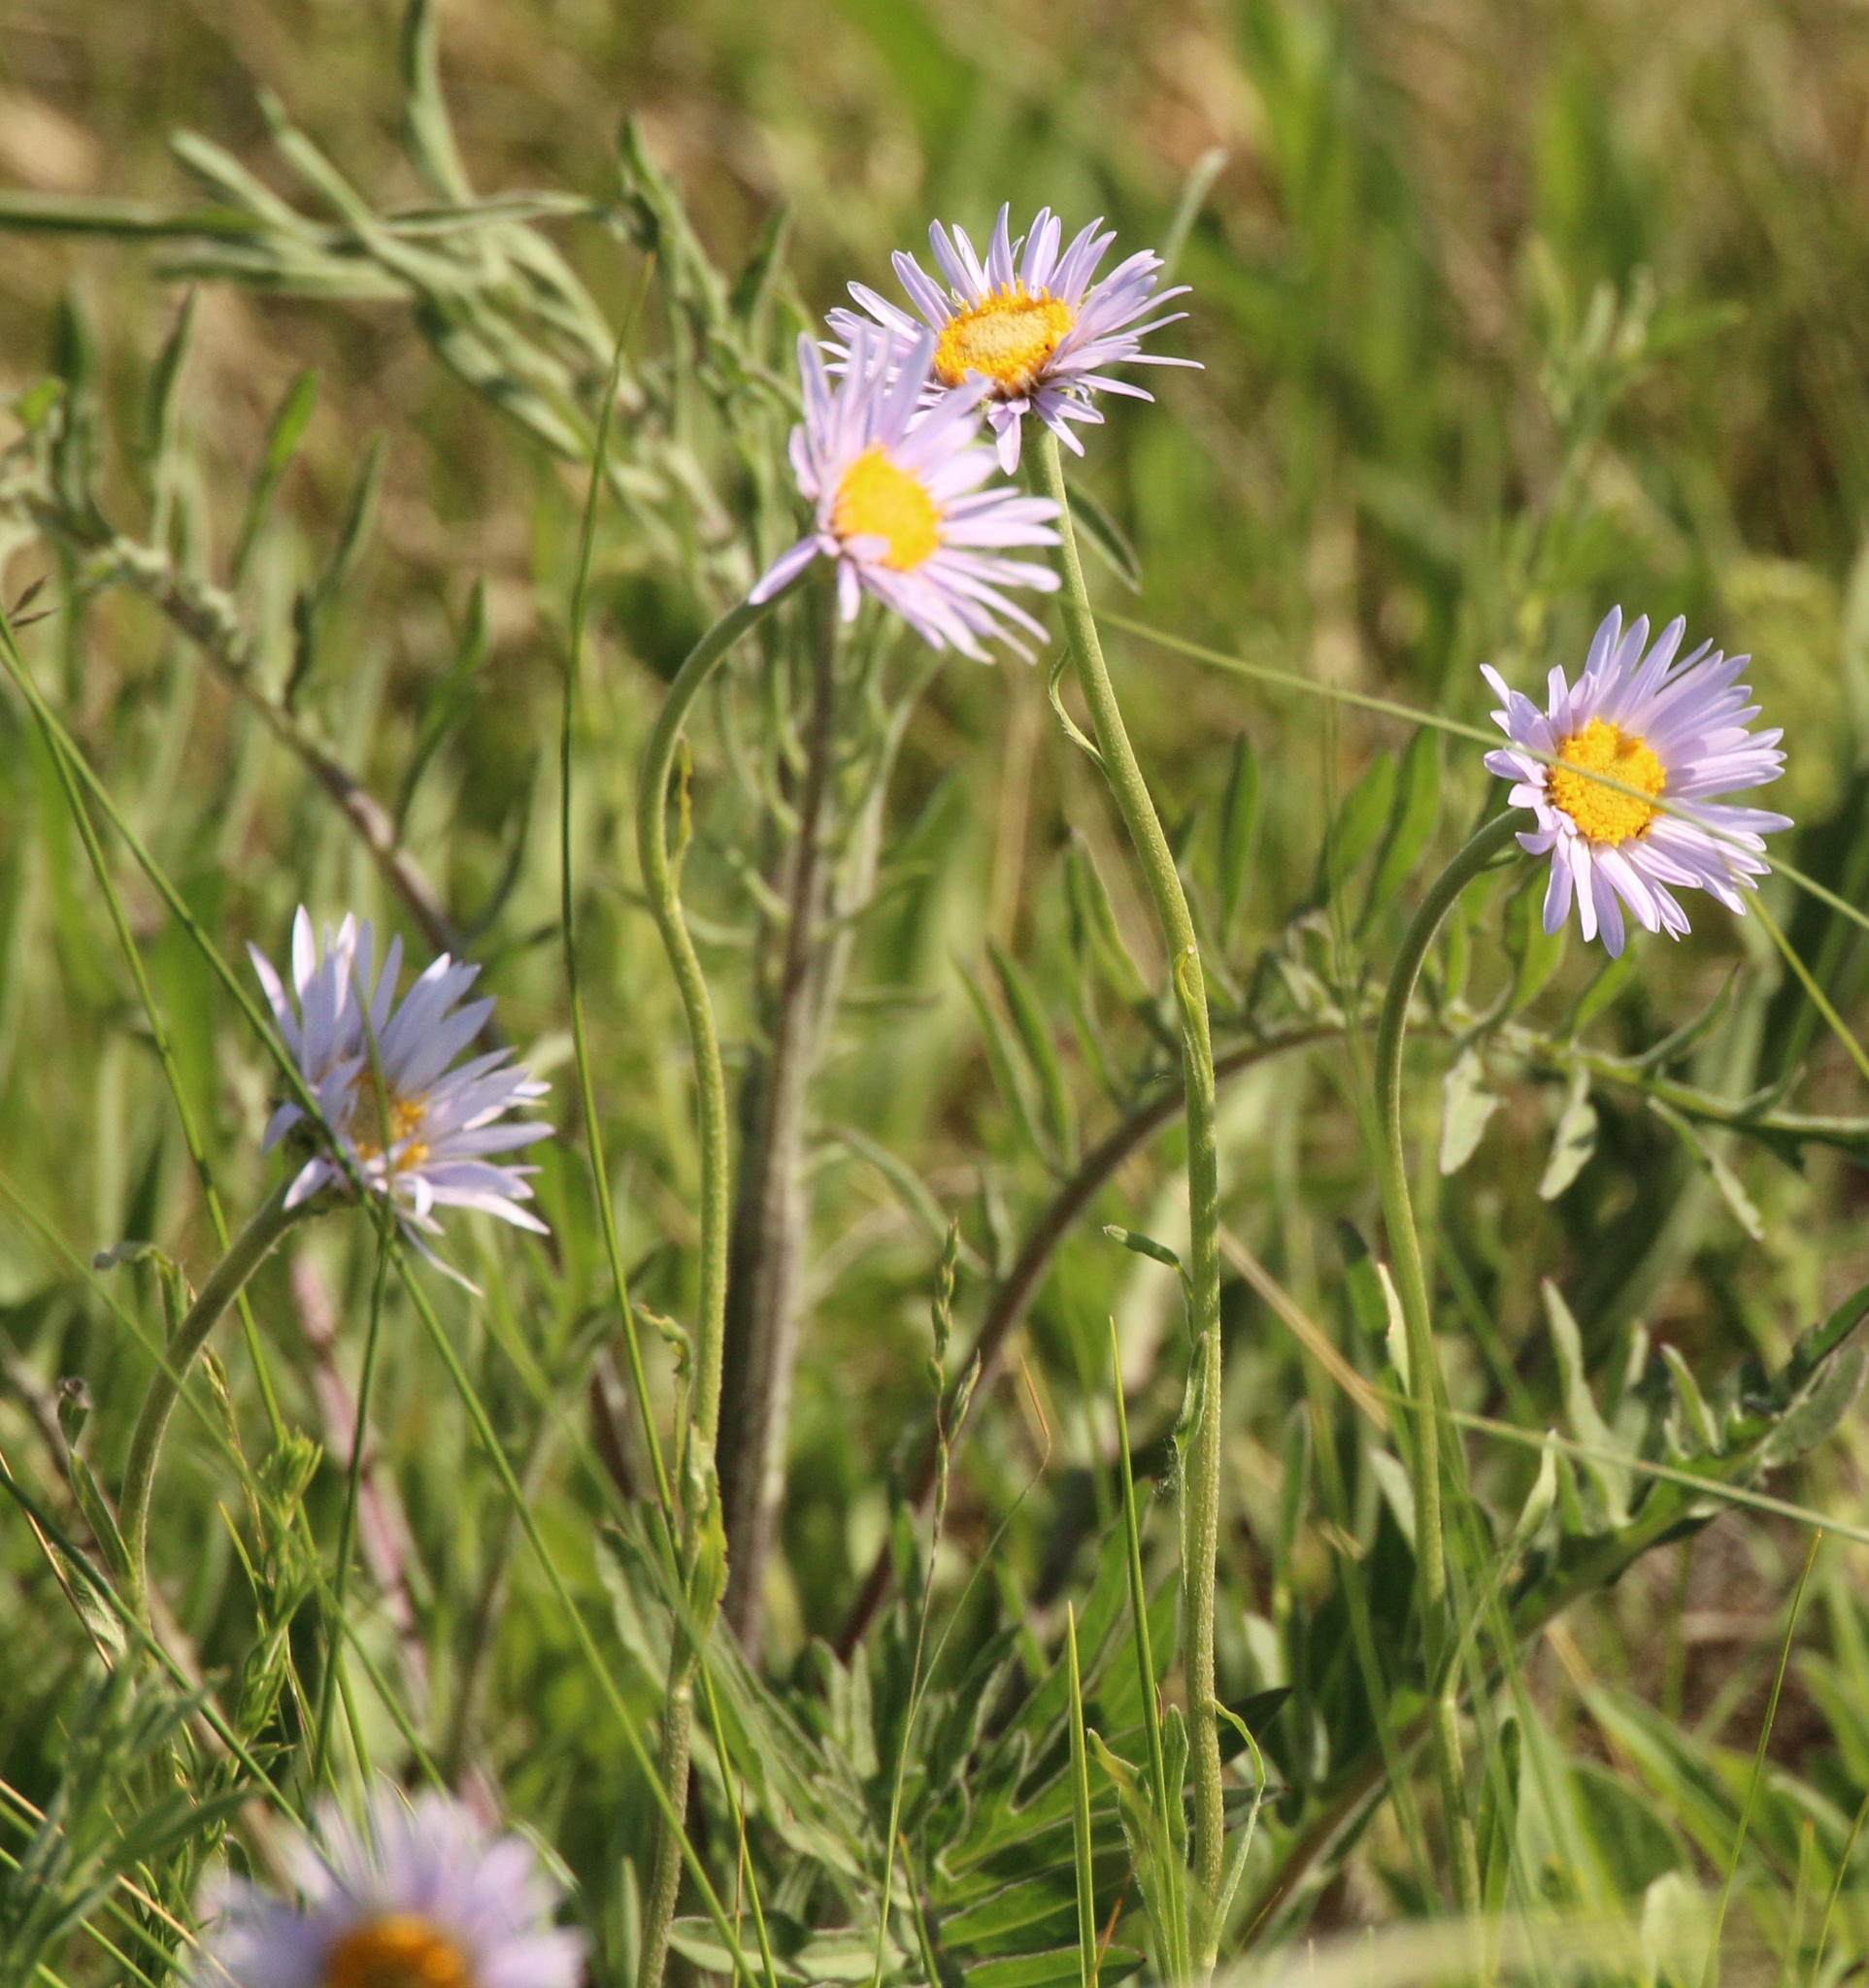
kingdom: Plantae
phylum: Tracheophyta
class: Magnoliopsida
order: Asterales
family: Asteraceae
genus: Aster
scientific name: Aster alpinus
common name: Alpine aster
